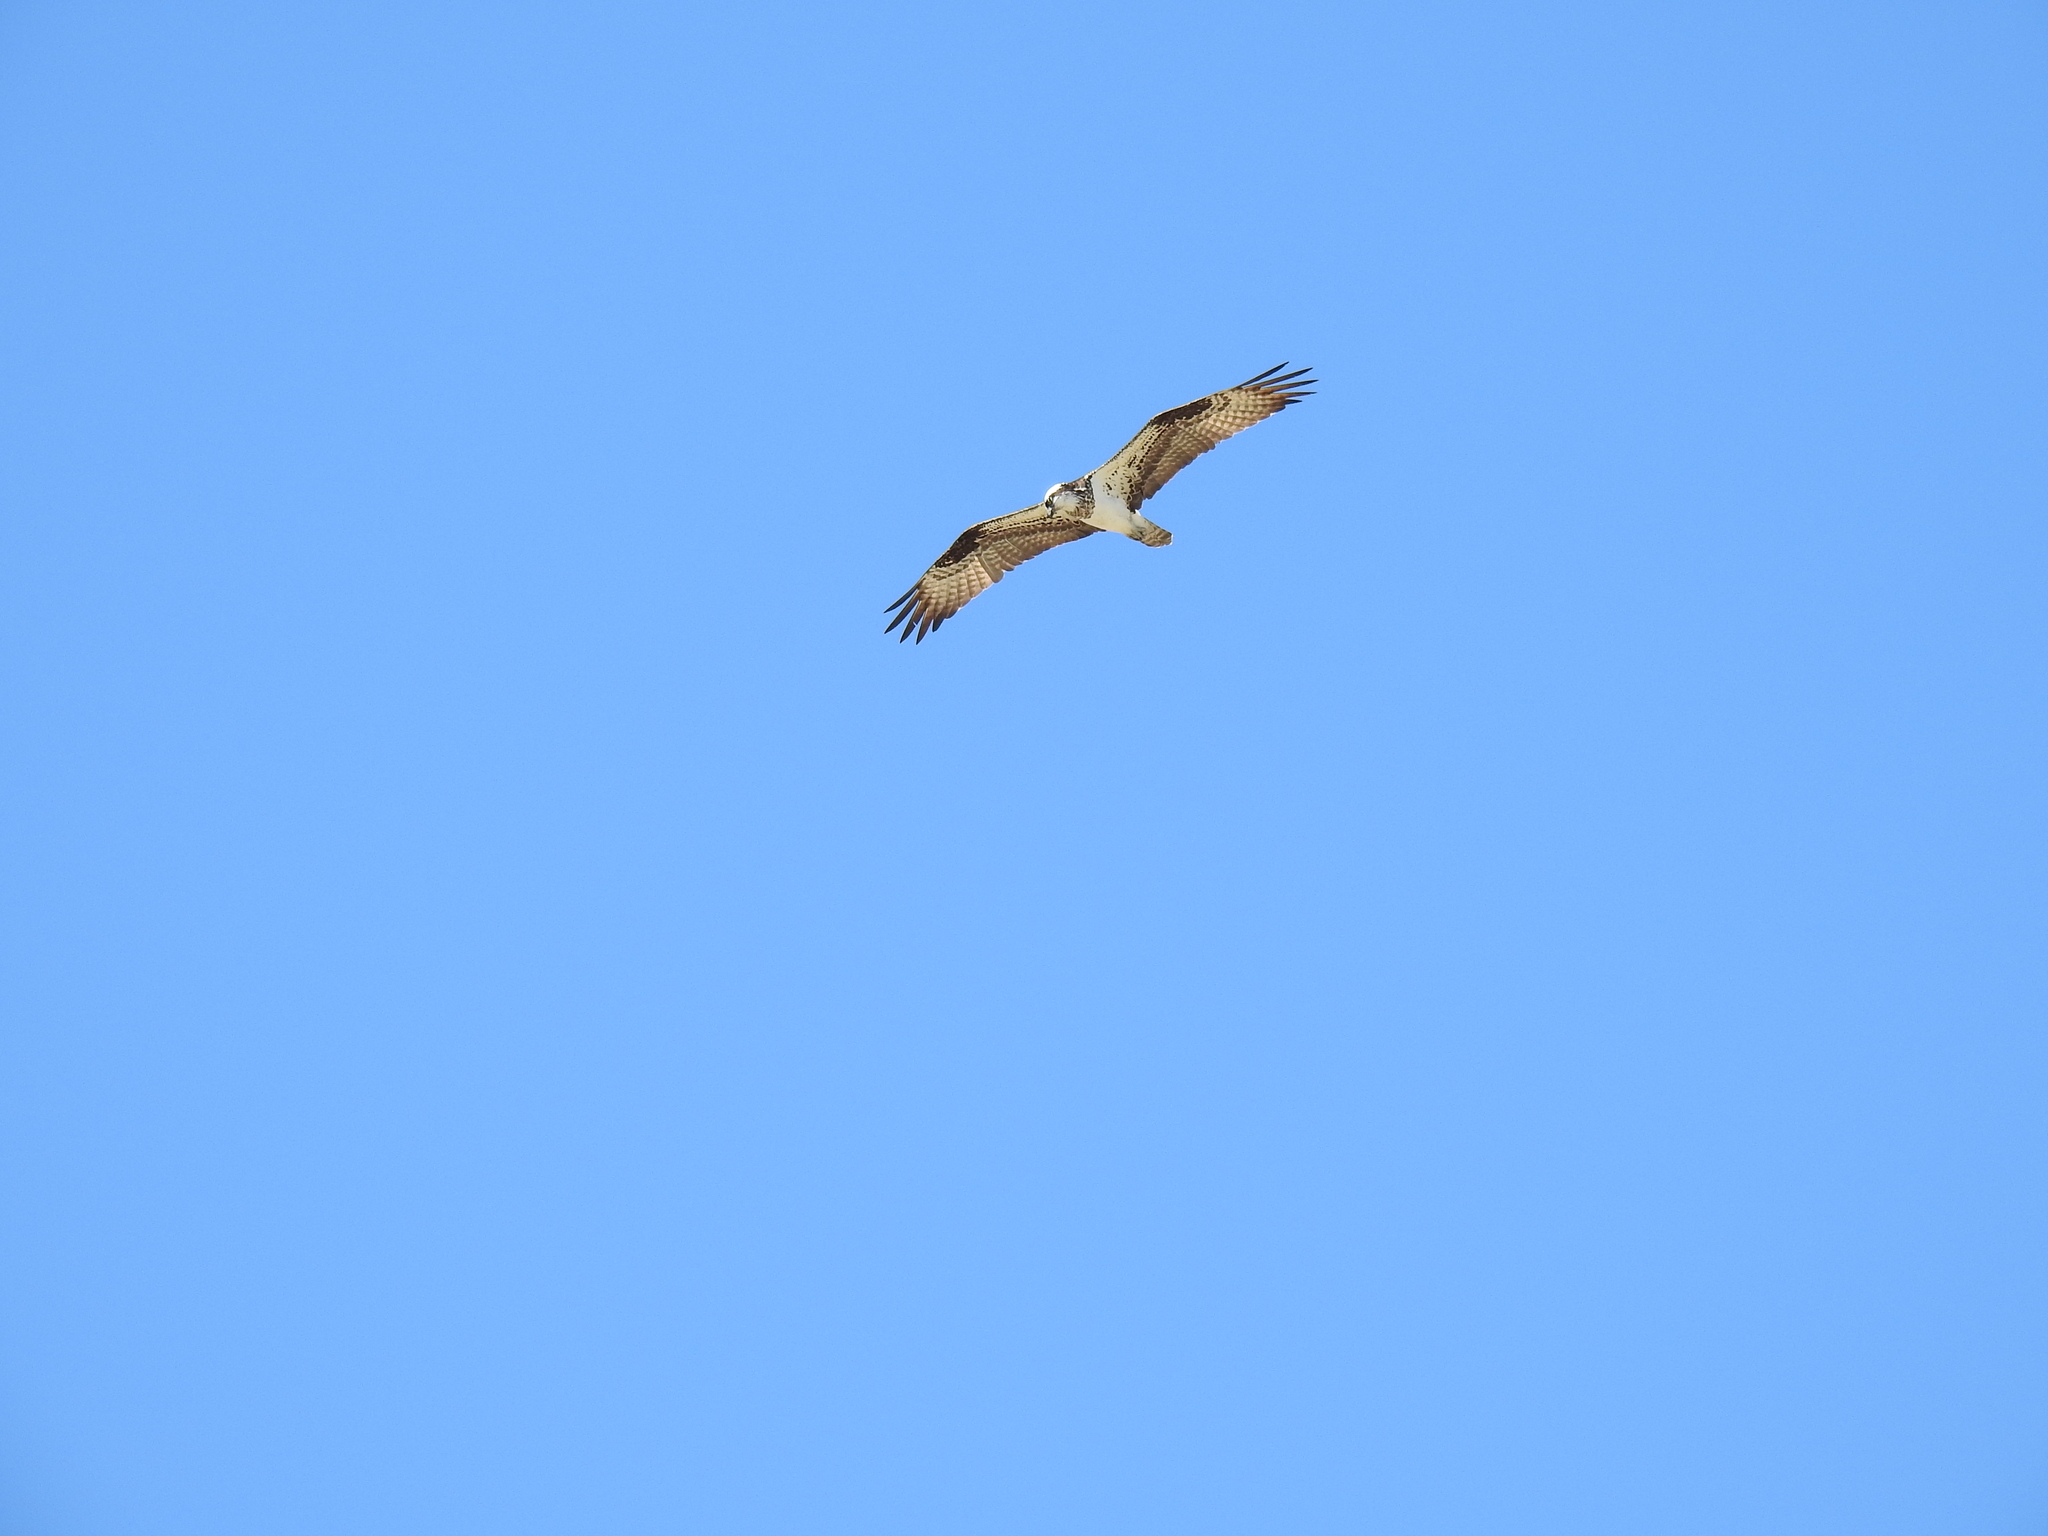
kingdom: Animalia
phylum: Chordata
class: Aves
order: Accipitriformes
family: Pandionidae
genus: Pandion
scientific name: Pandion haliaetus
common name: Osprey
